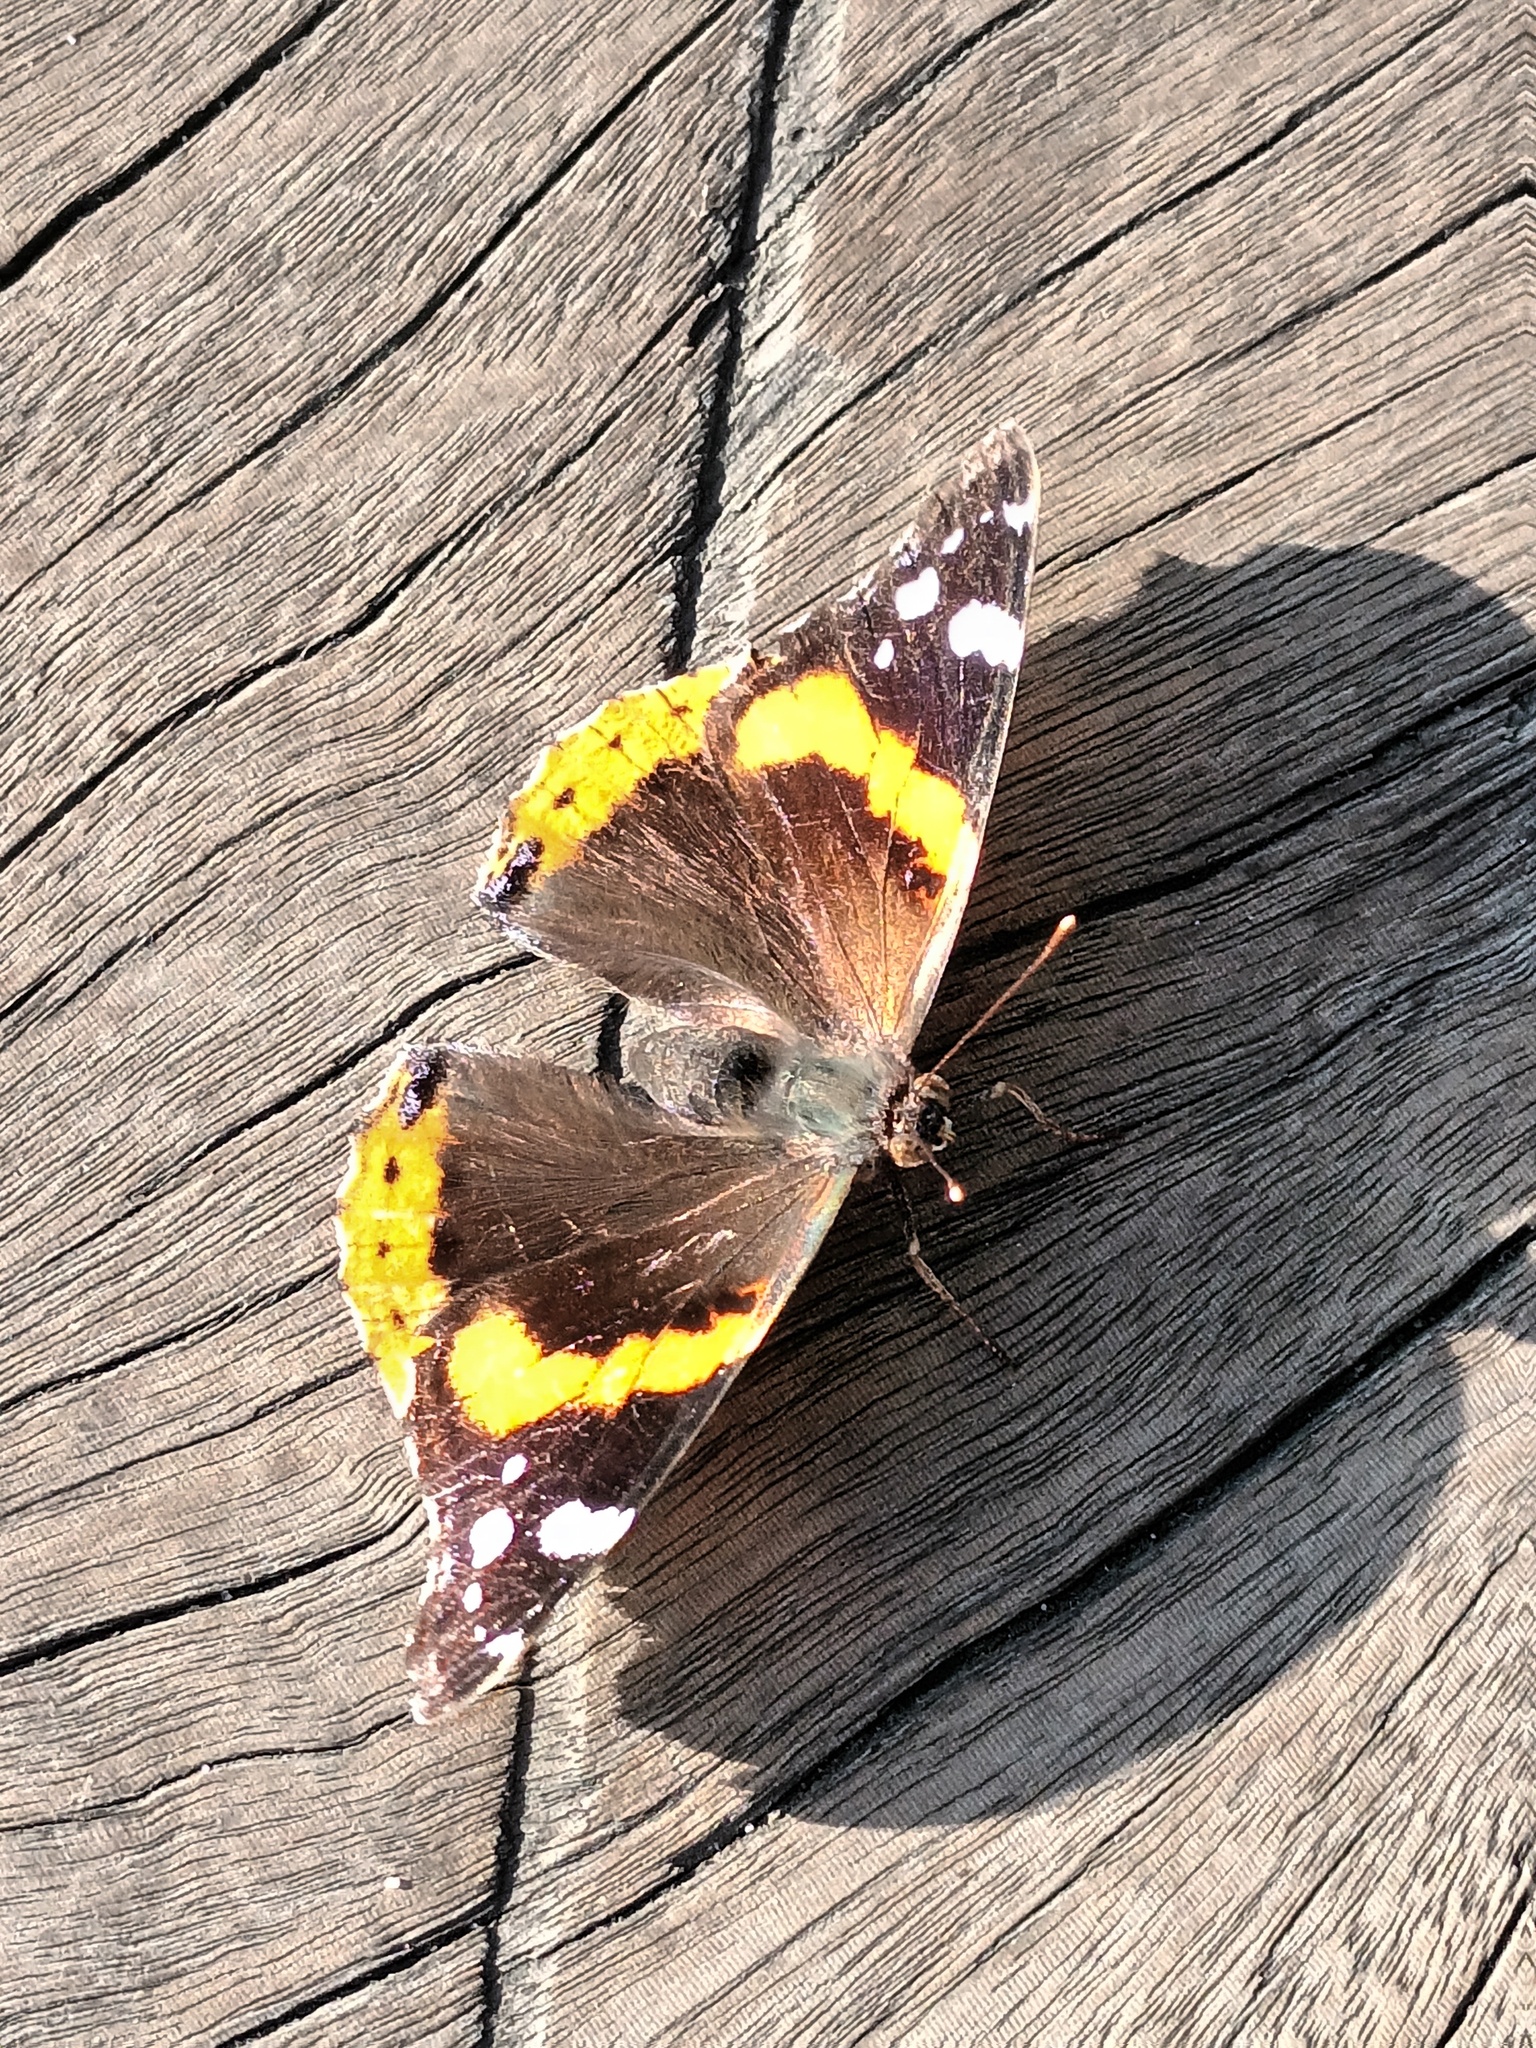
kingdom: Animalia
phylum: Arthropoda
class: Insecta
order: Lepidoptera
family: Nymphalidae
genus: Vanessa
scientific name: Vanessa atalanta
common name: Red admiral
